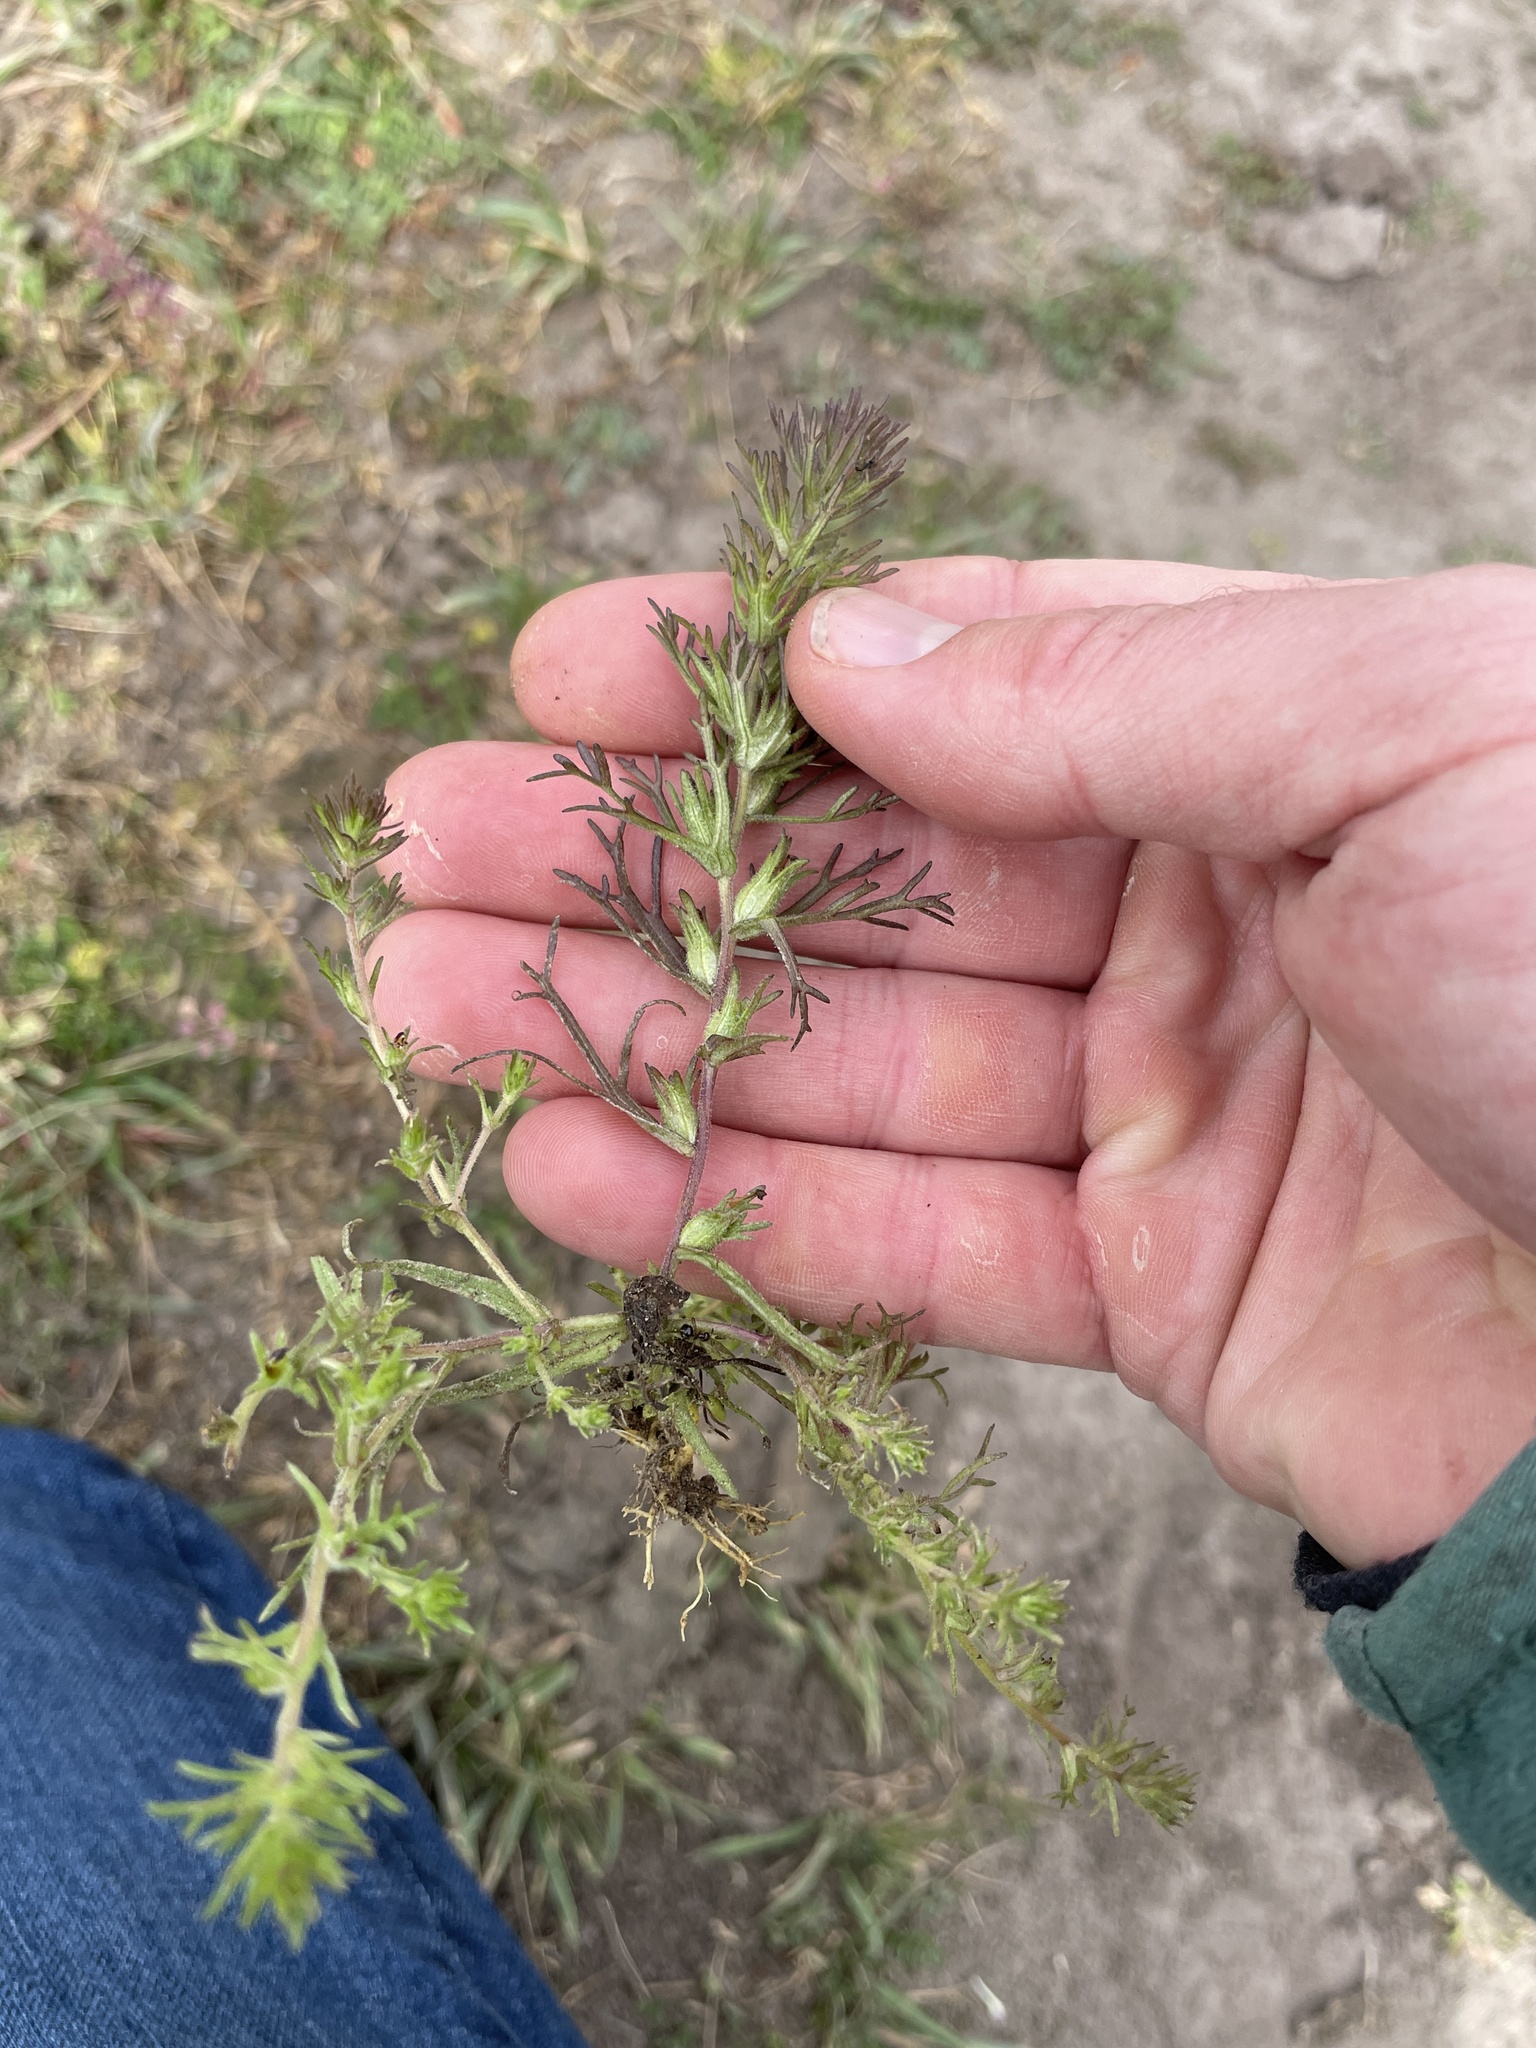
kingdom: Plantae
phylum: Tracheophyta
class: Magnoliopsida
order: Lamiales
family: Orobanchaceae
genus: Triphysaria
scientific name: Triphysaria pusilla
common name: Dwarf false owl-clover
